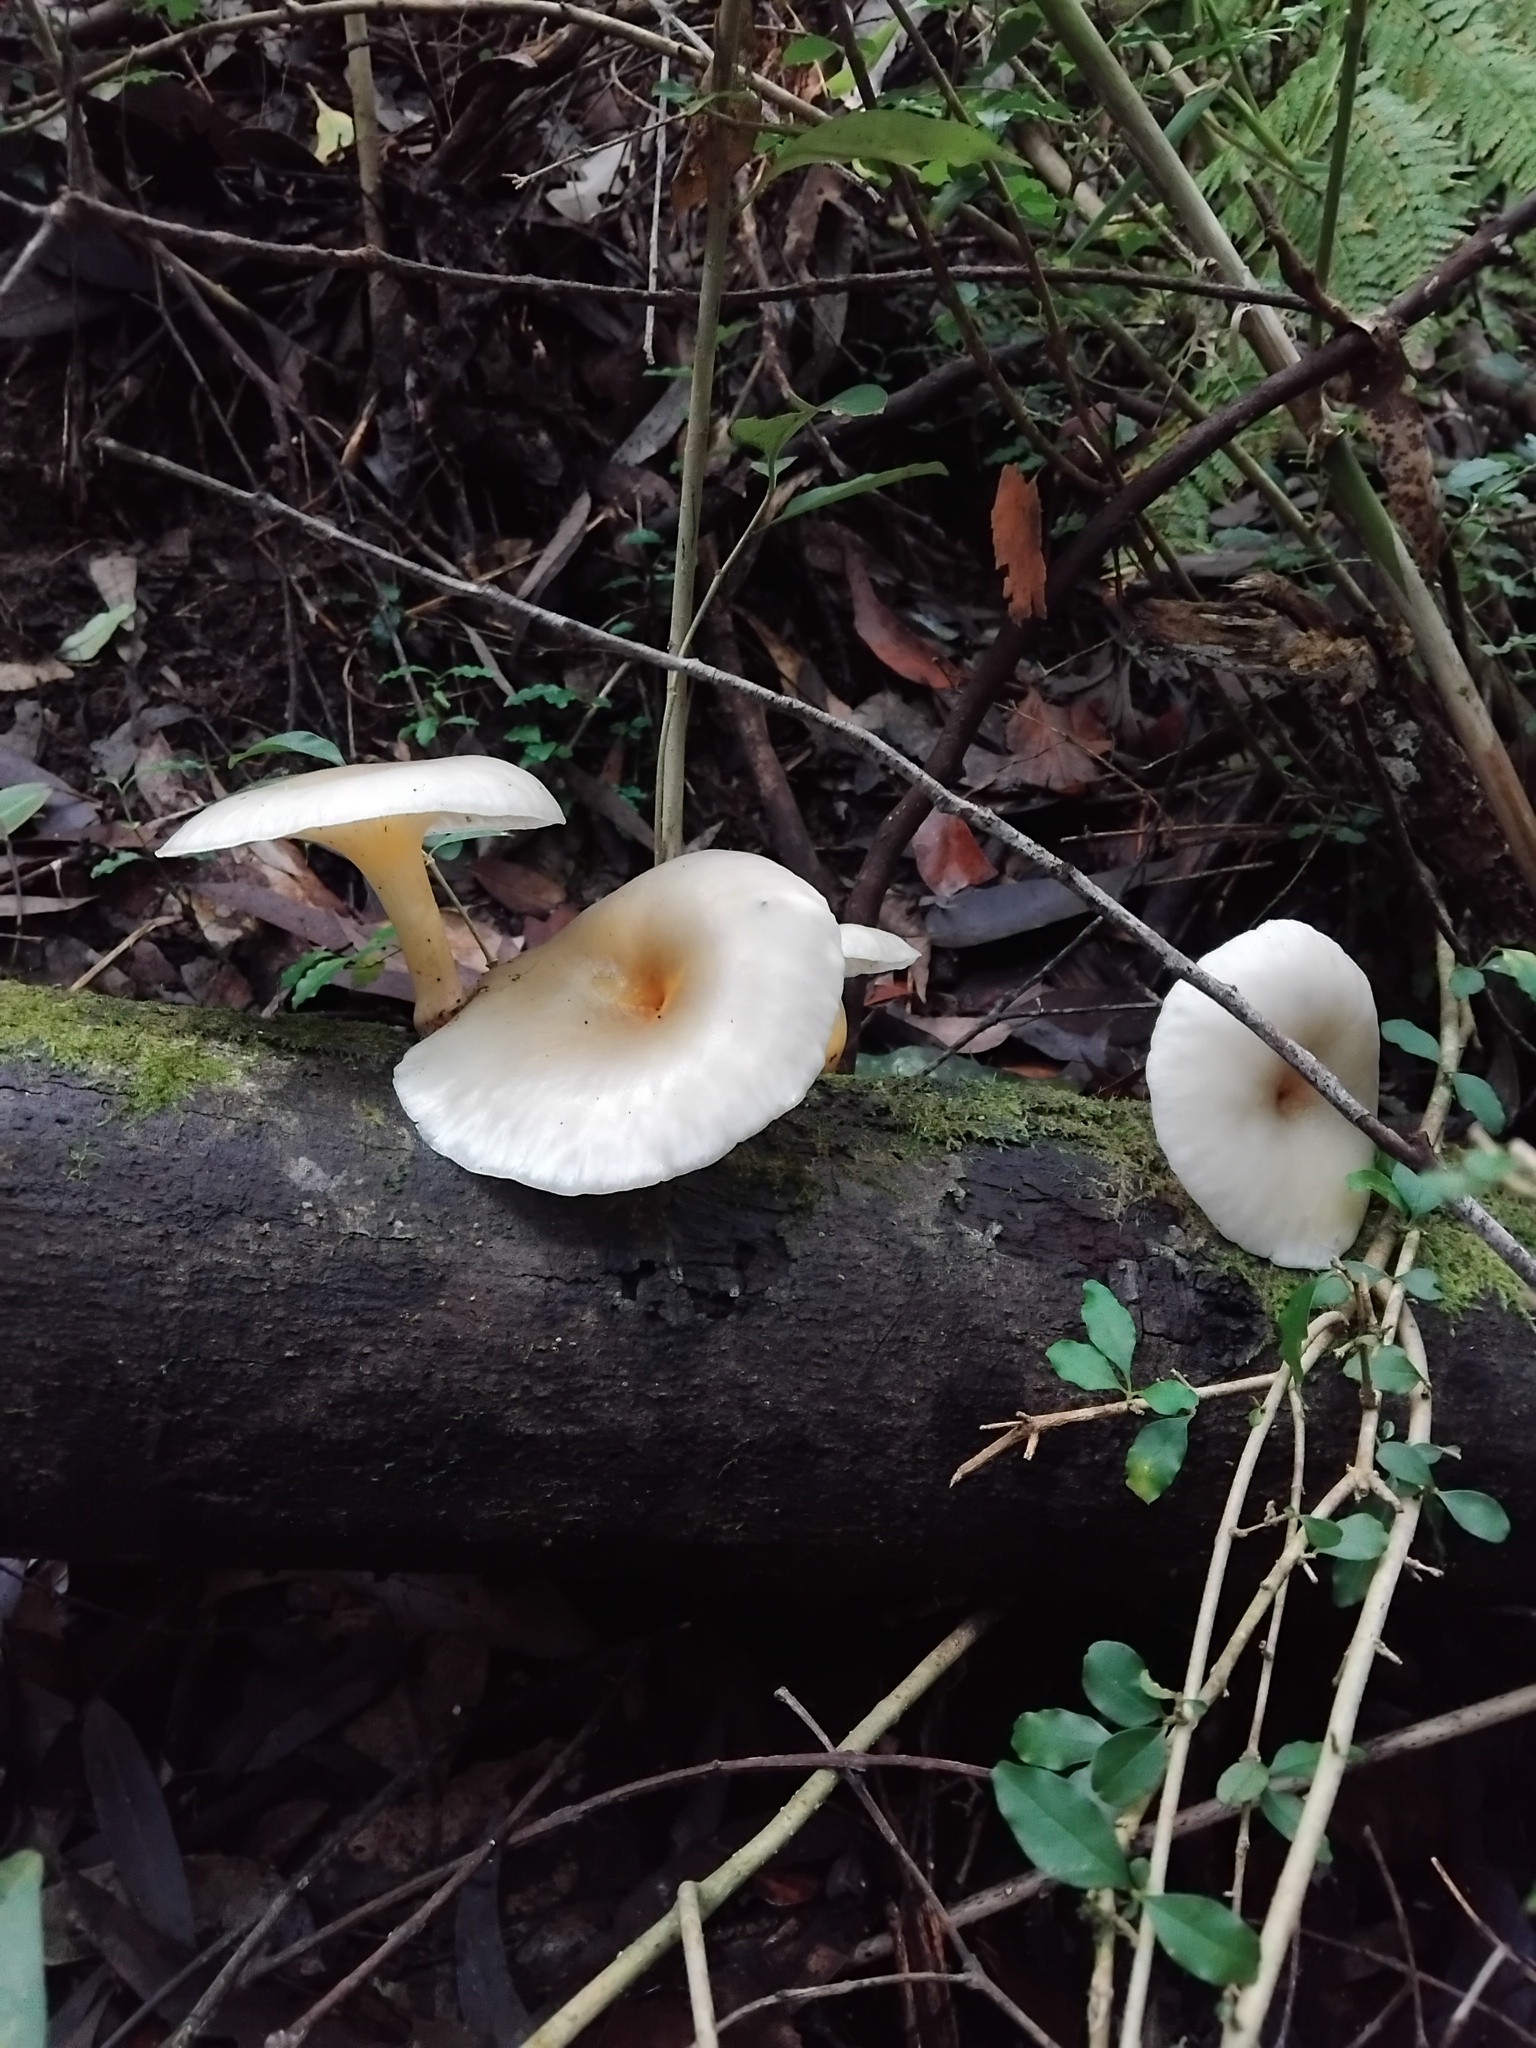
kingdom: Fungi
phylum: Basidiomycota
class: Agaricomycetes
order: Agaricales
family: Omphalotaceae
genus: Omphalotus
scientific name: Omphalotus nidiformis
